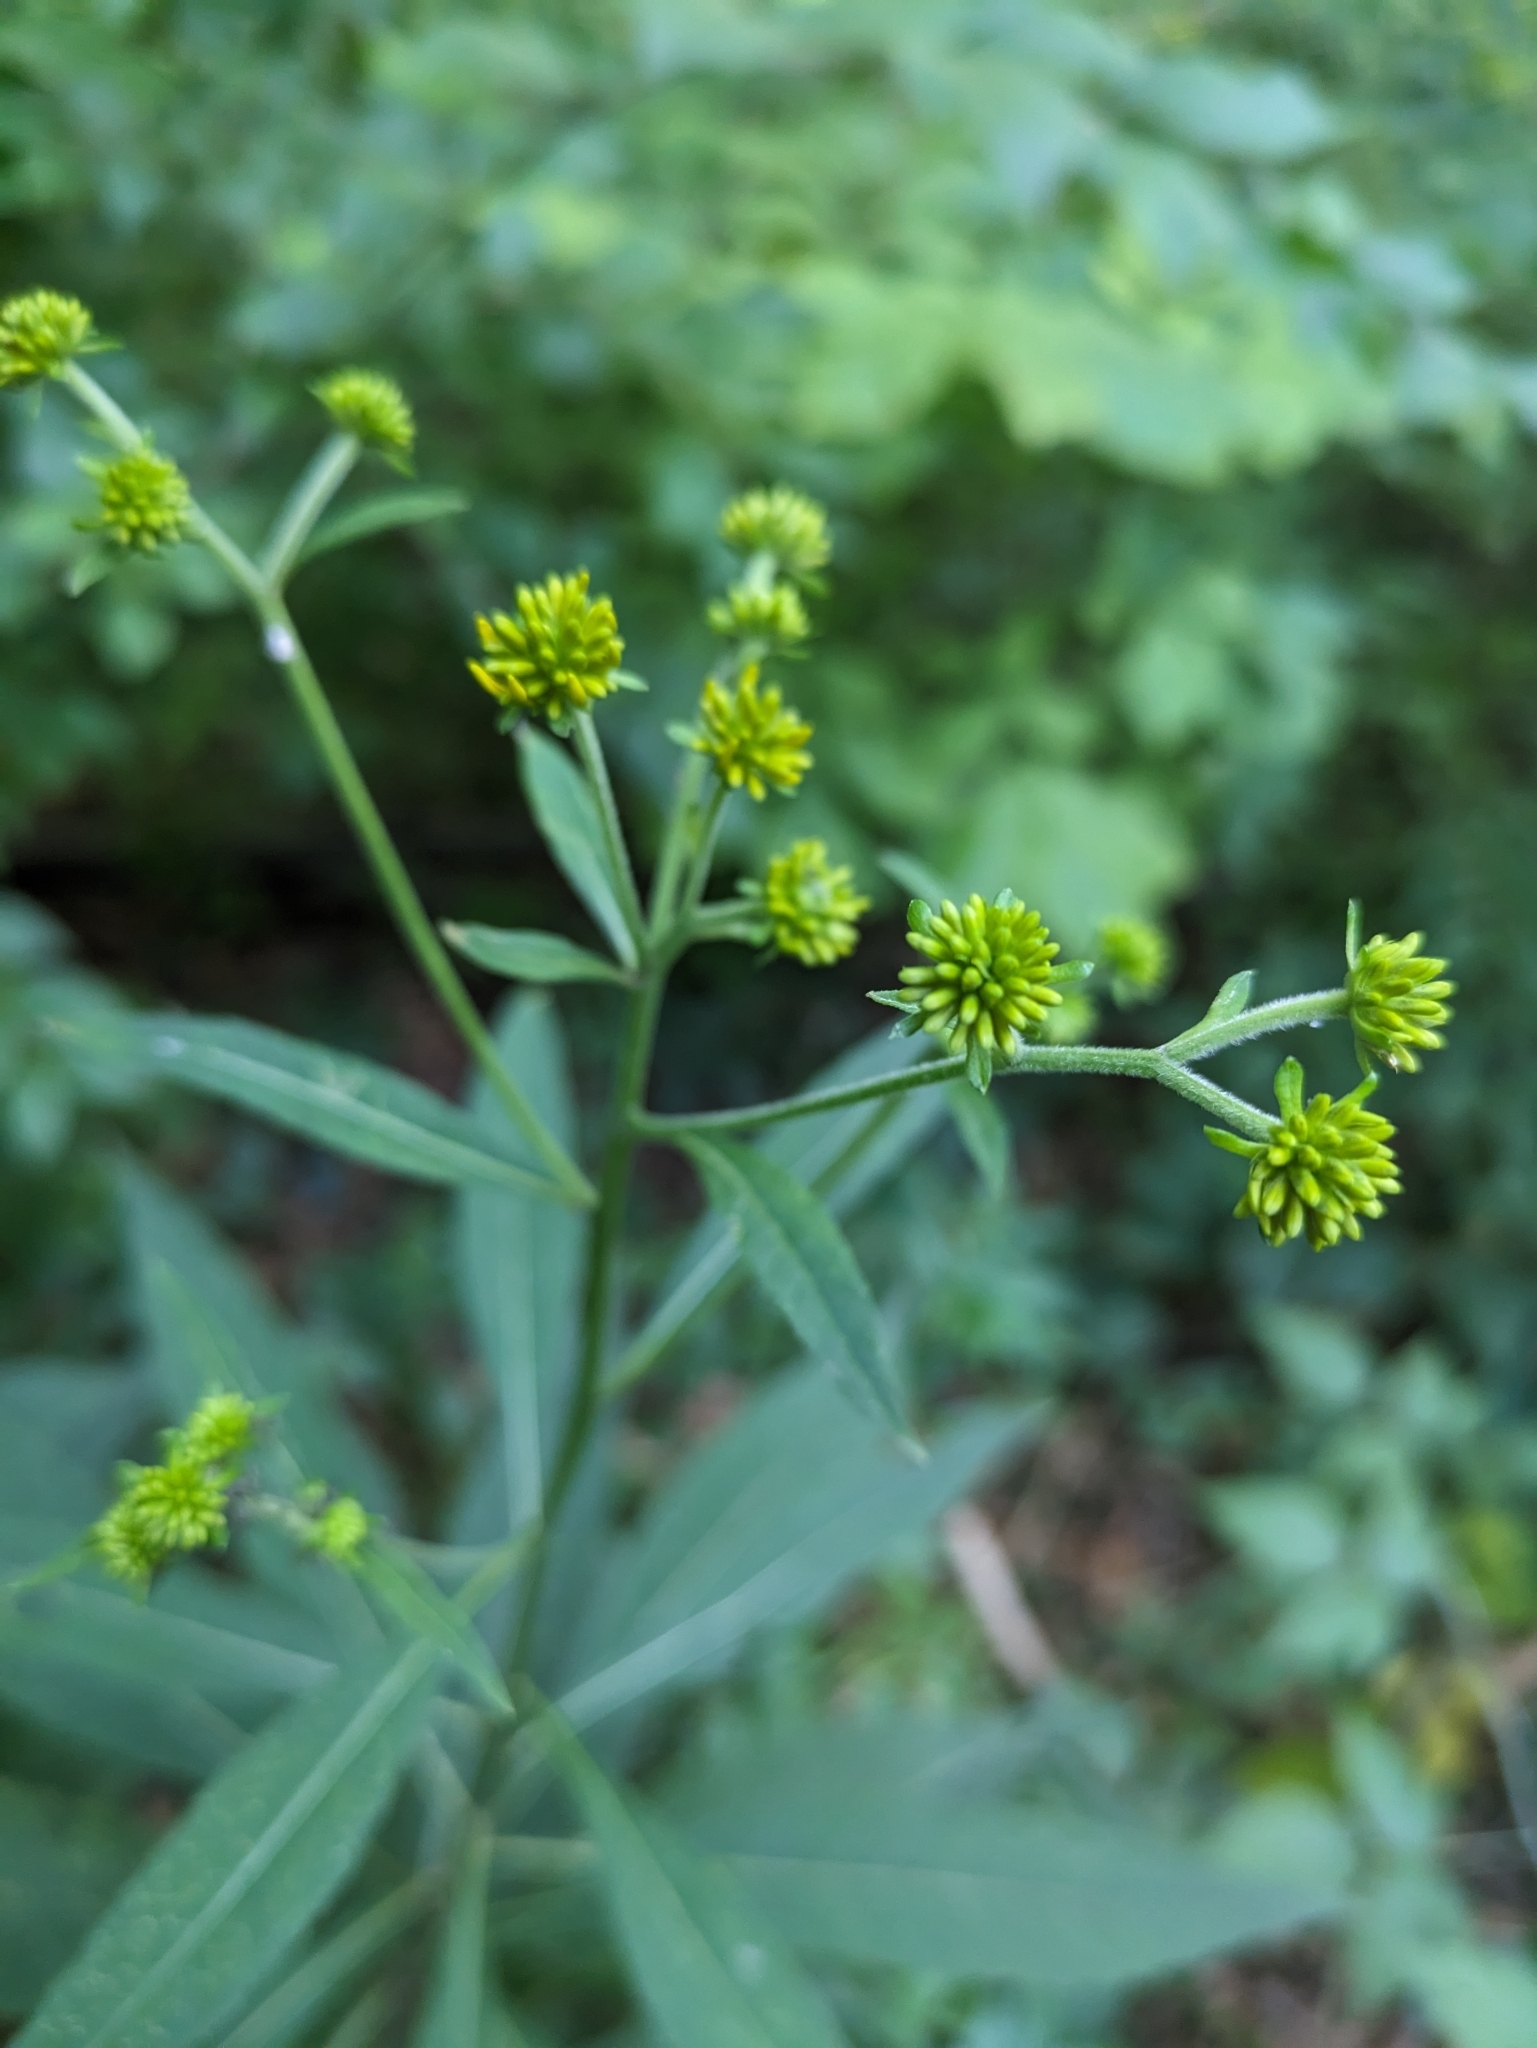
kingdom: Plantae
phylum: Tracheophyta
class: Magnoliopsida
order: Asterales
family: Asteraceae
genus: Verbesina
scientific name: Verbesina alternifolia
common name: Wingstem
